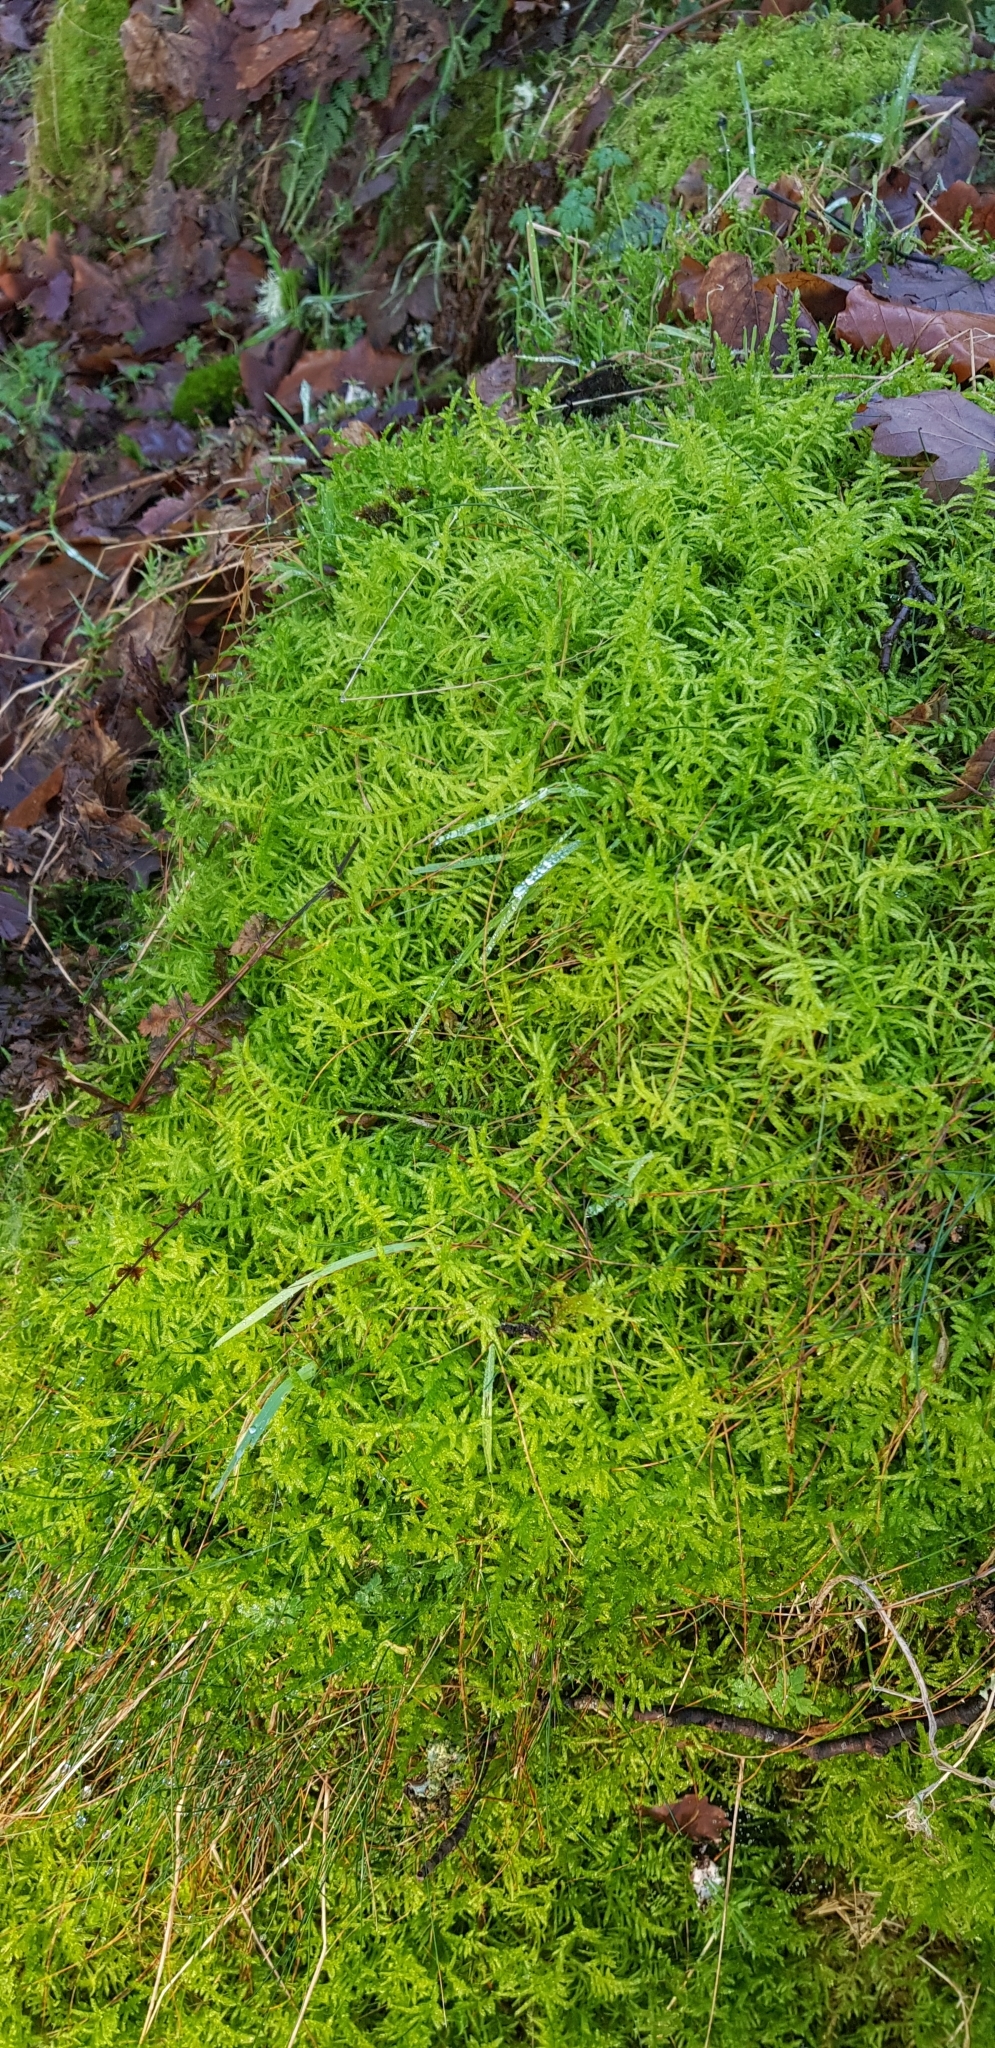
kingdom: Plantae
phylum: Bryophyta
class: Bryopsida
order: Hypnales
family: Brachytheciaceae
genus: Pseudoscleropodium
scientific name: Pseudoscleropodium purum
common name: Neat feather-moss
